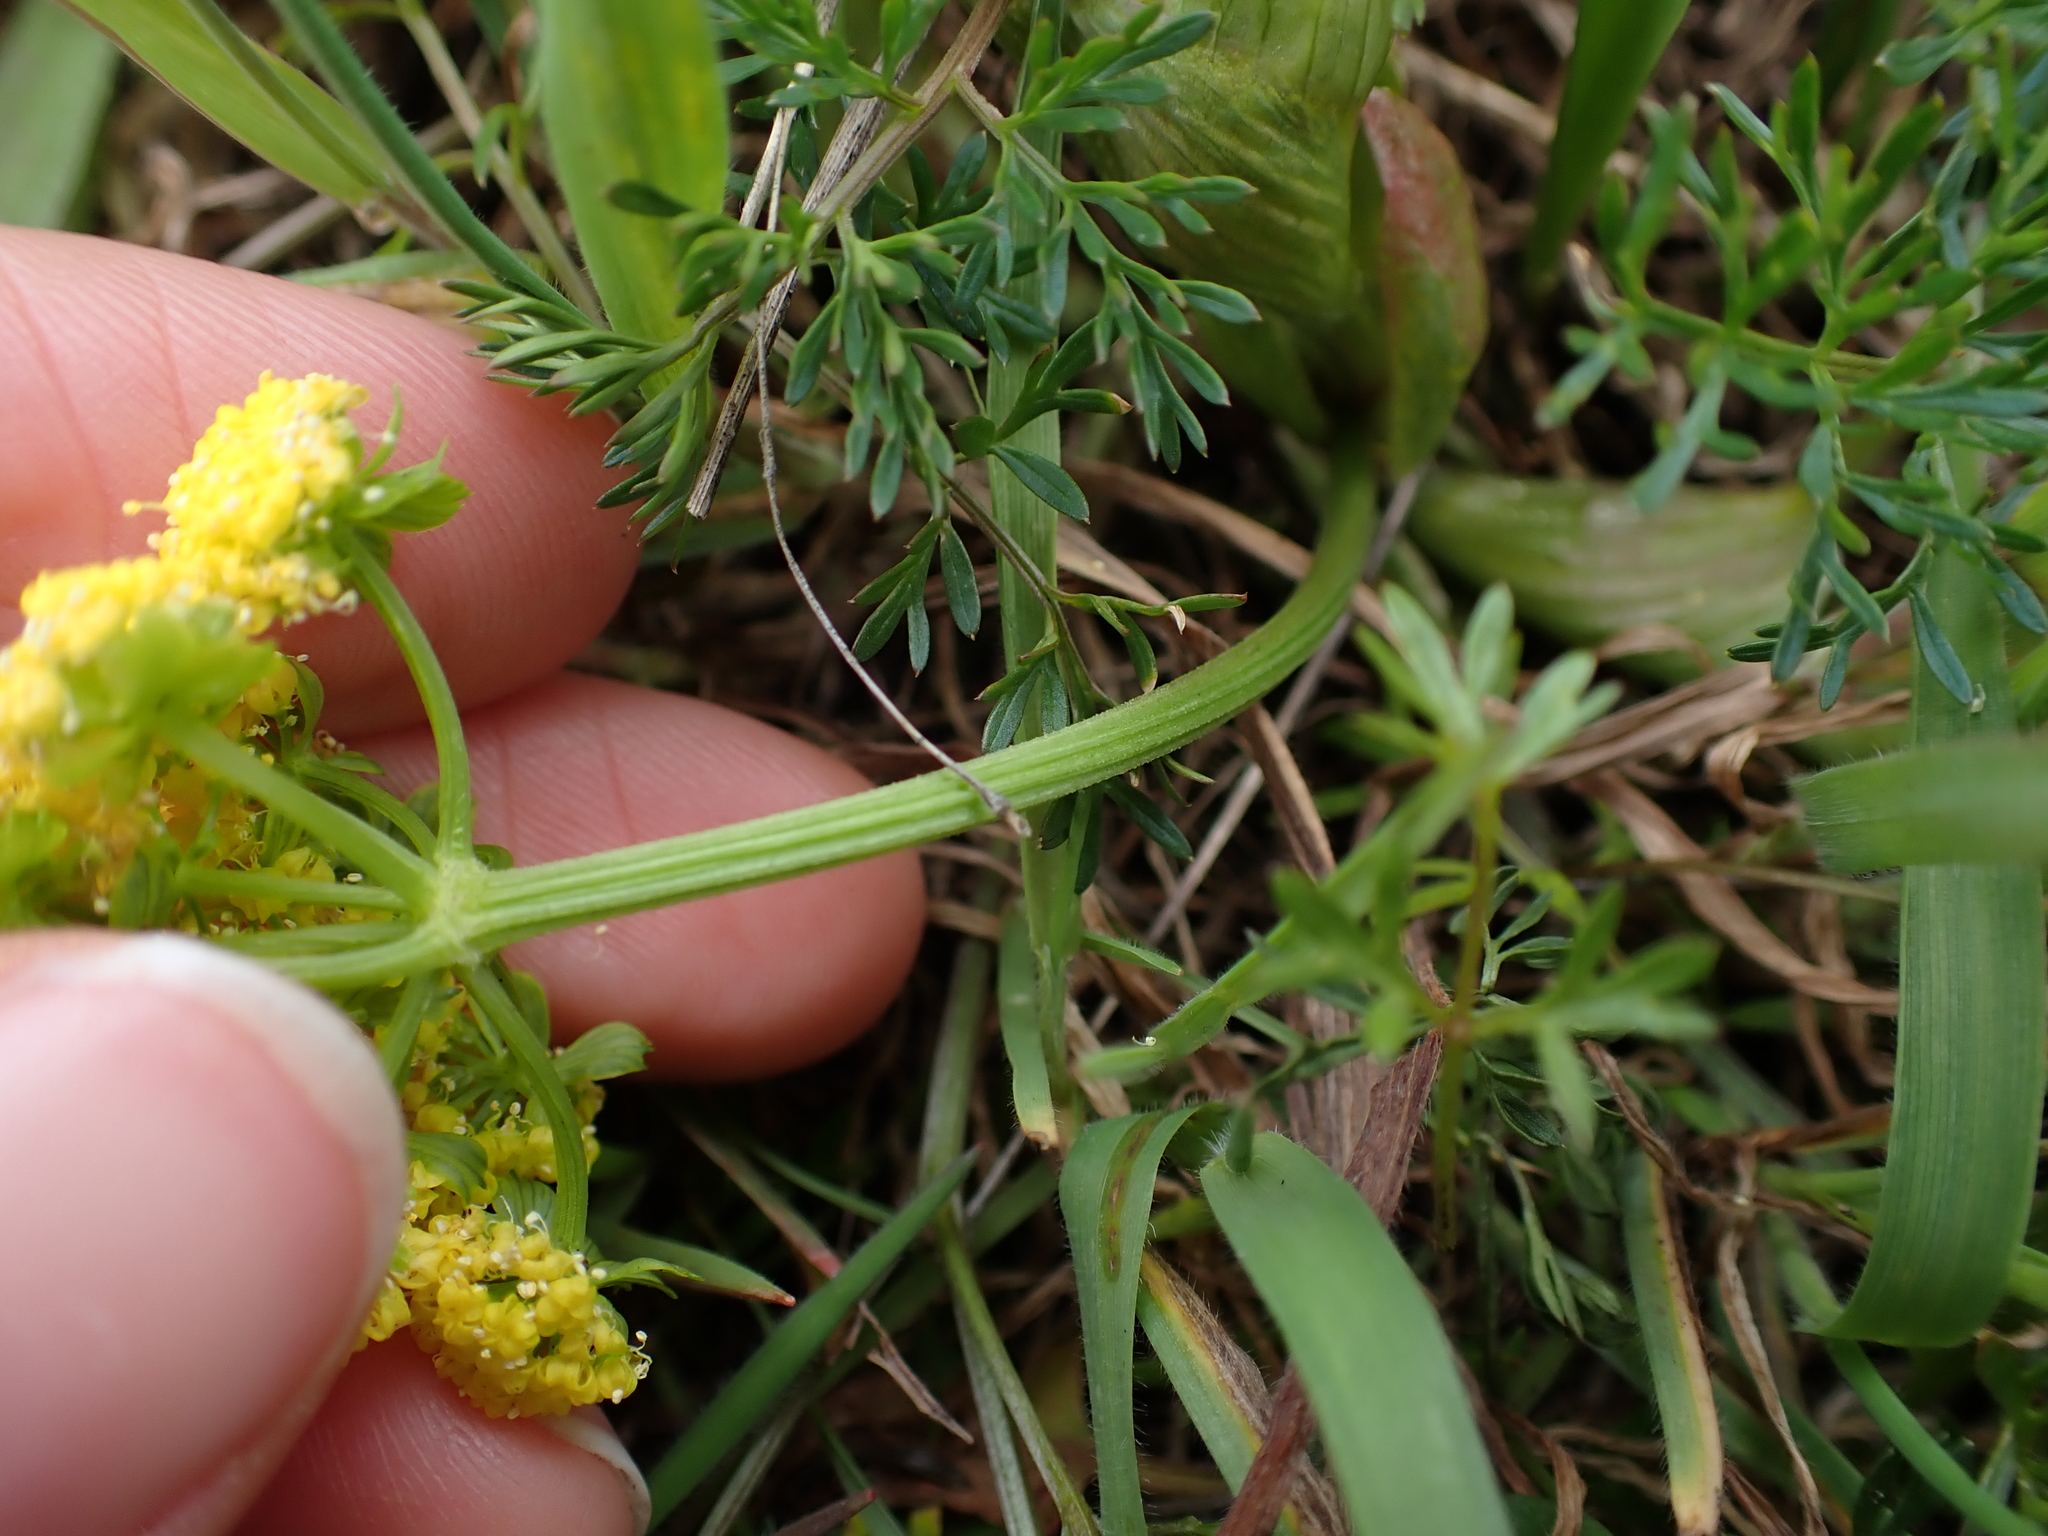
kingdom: Plantae
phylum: Tracheophyta
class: Magnoliopsida
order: Apiales
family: Apiaceae
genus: Lomatium
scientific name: Lomatium utriculatum
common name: Fine-leaf desert-parsley
